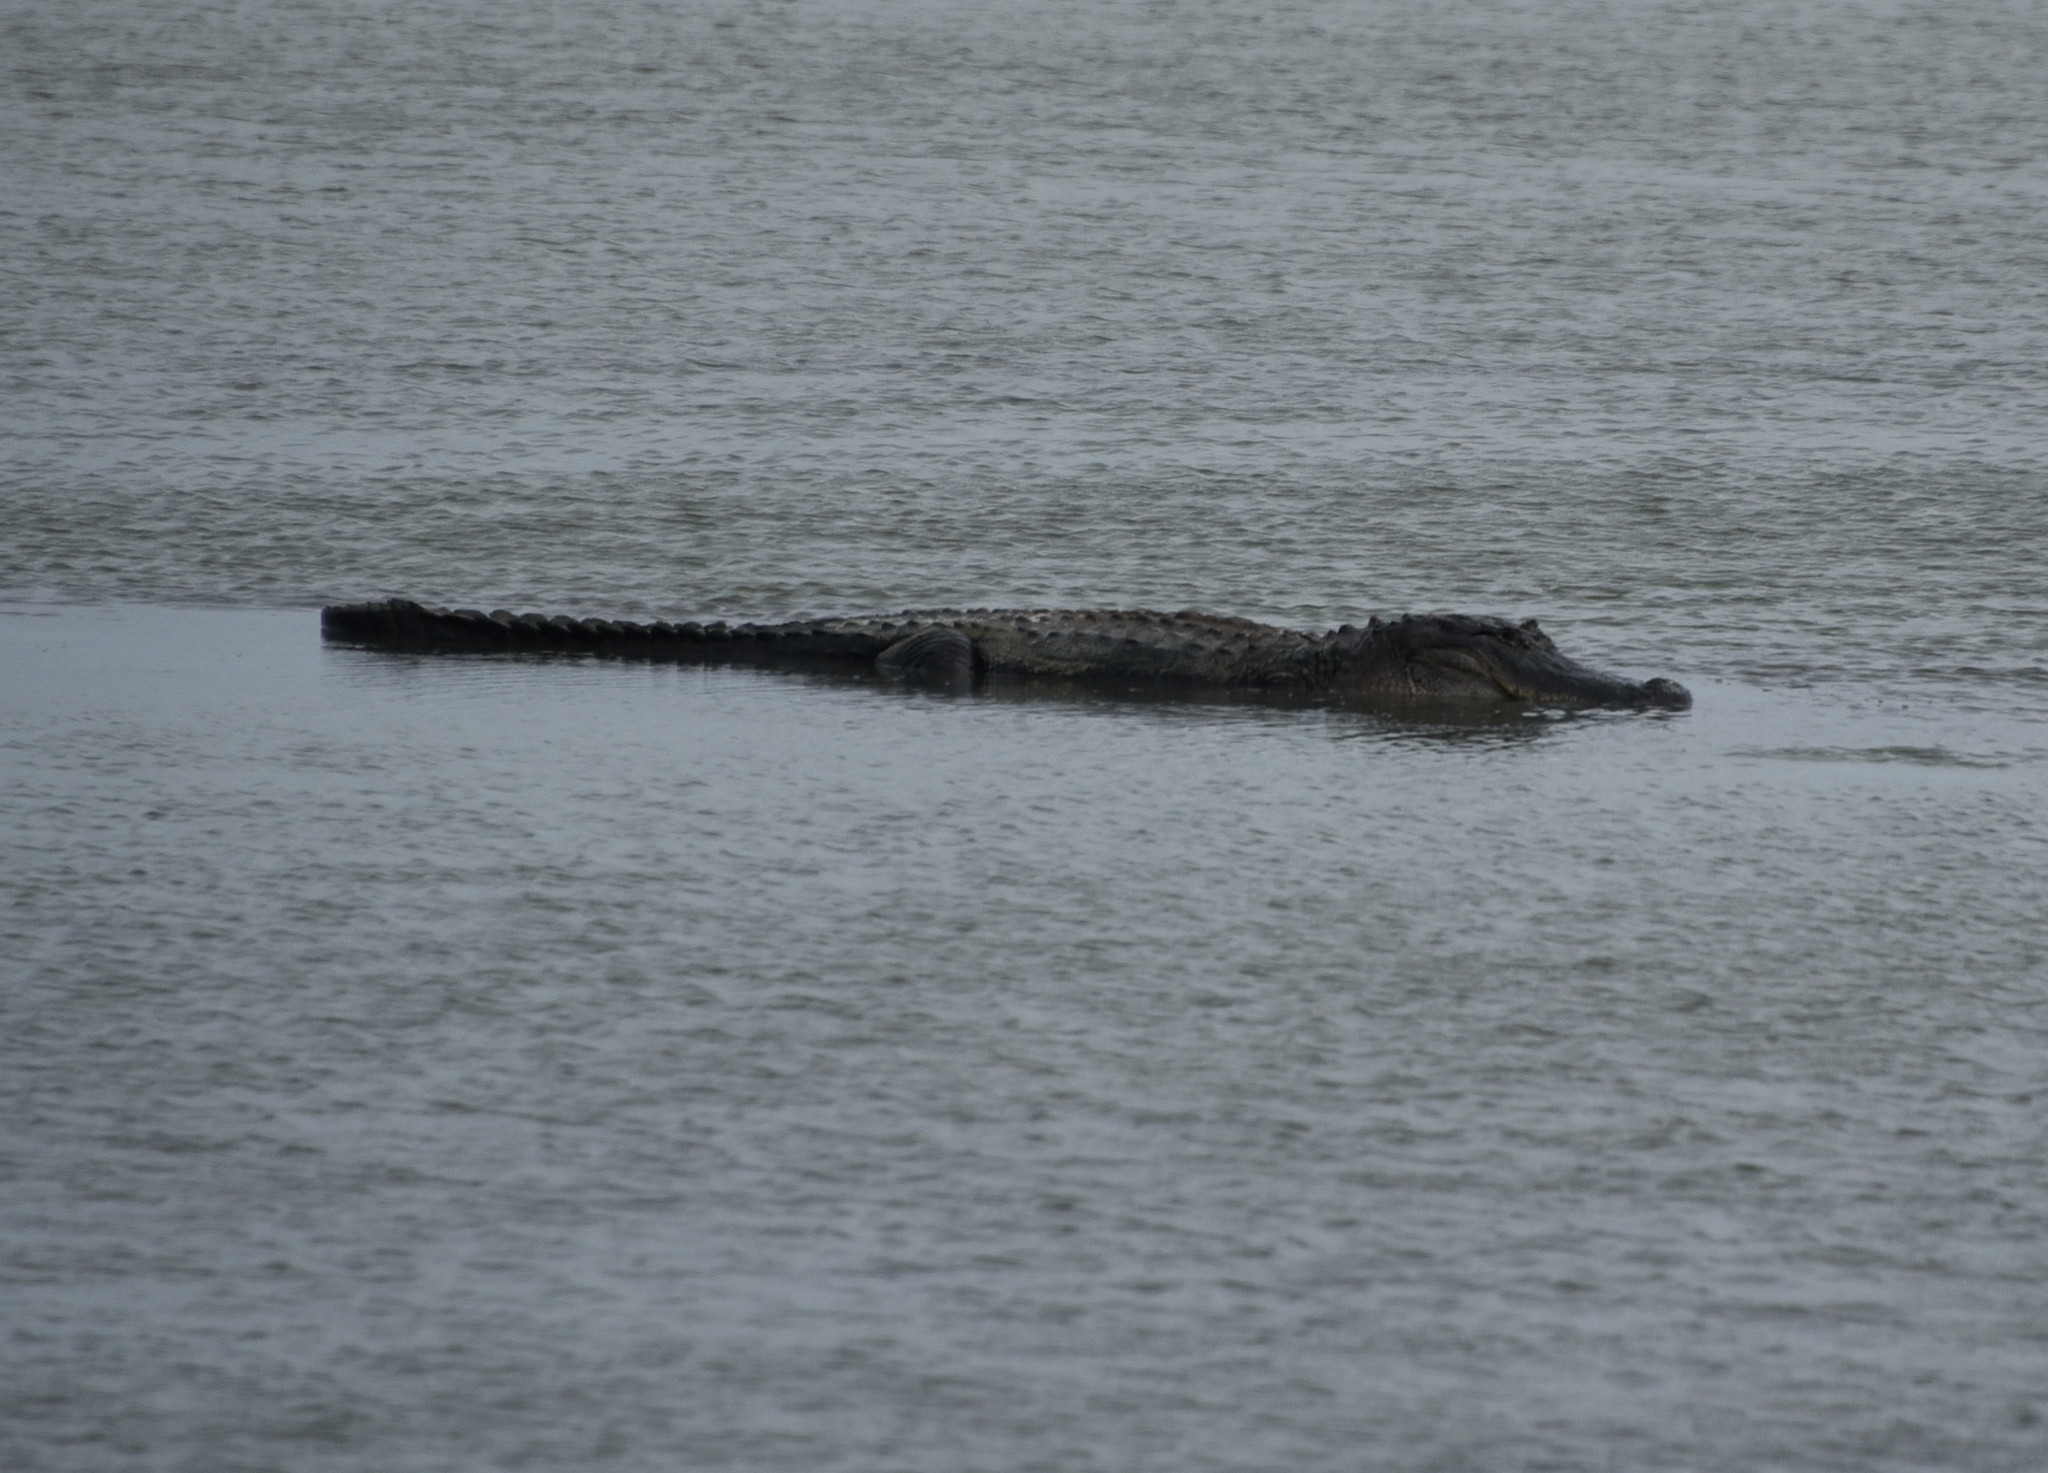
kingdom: Animalia
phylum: Chordata
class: Crocodylia
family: Alligatoridae
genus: Alligator
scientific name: Alligator mississippiensis
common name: American alligator
